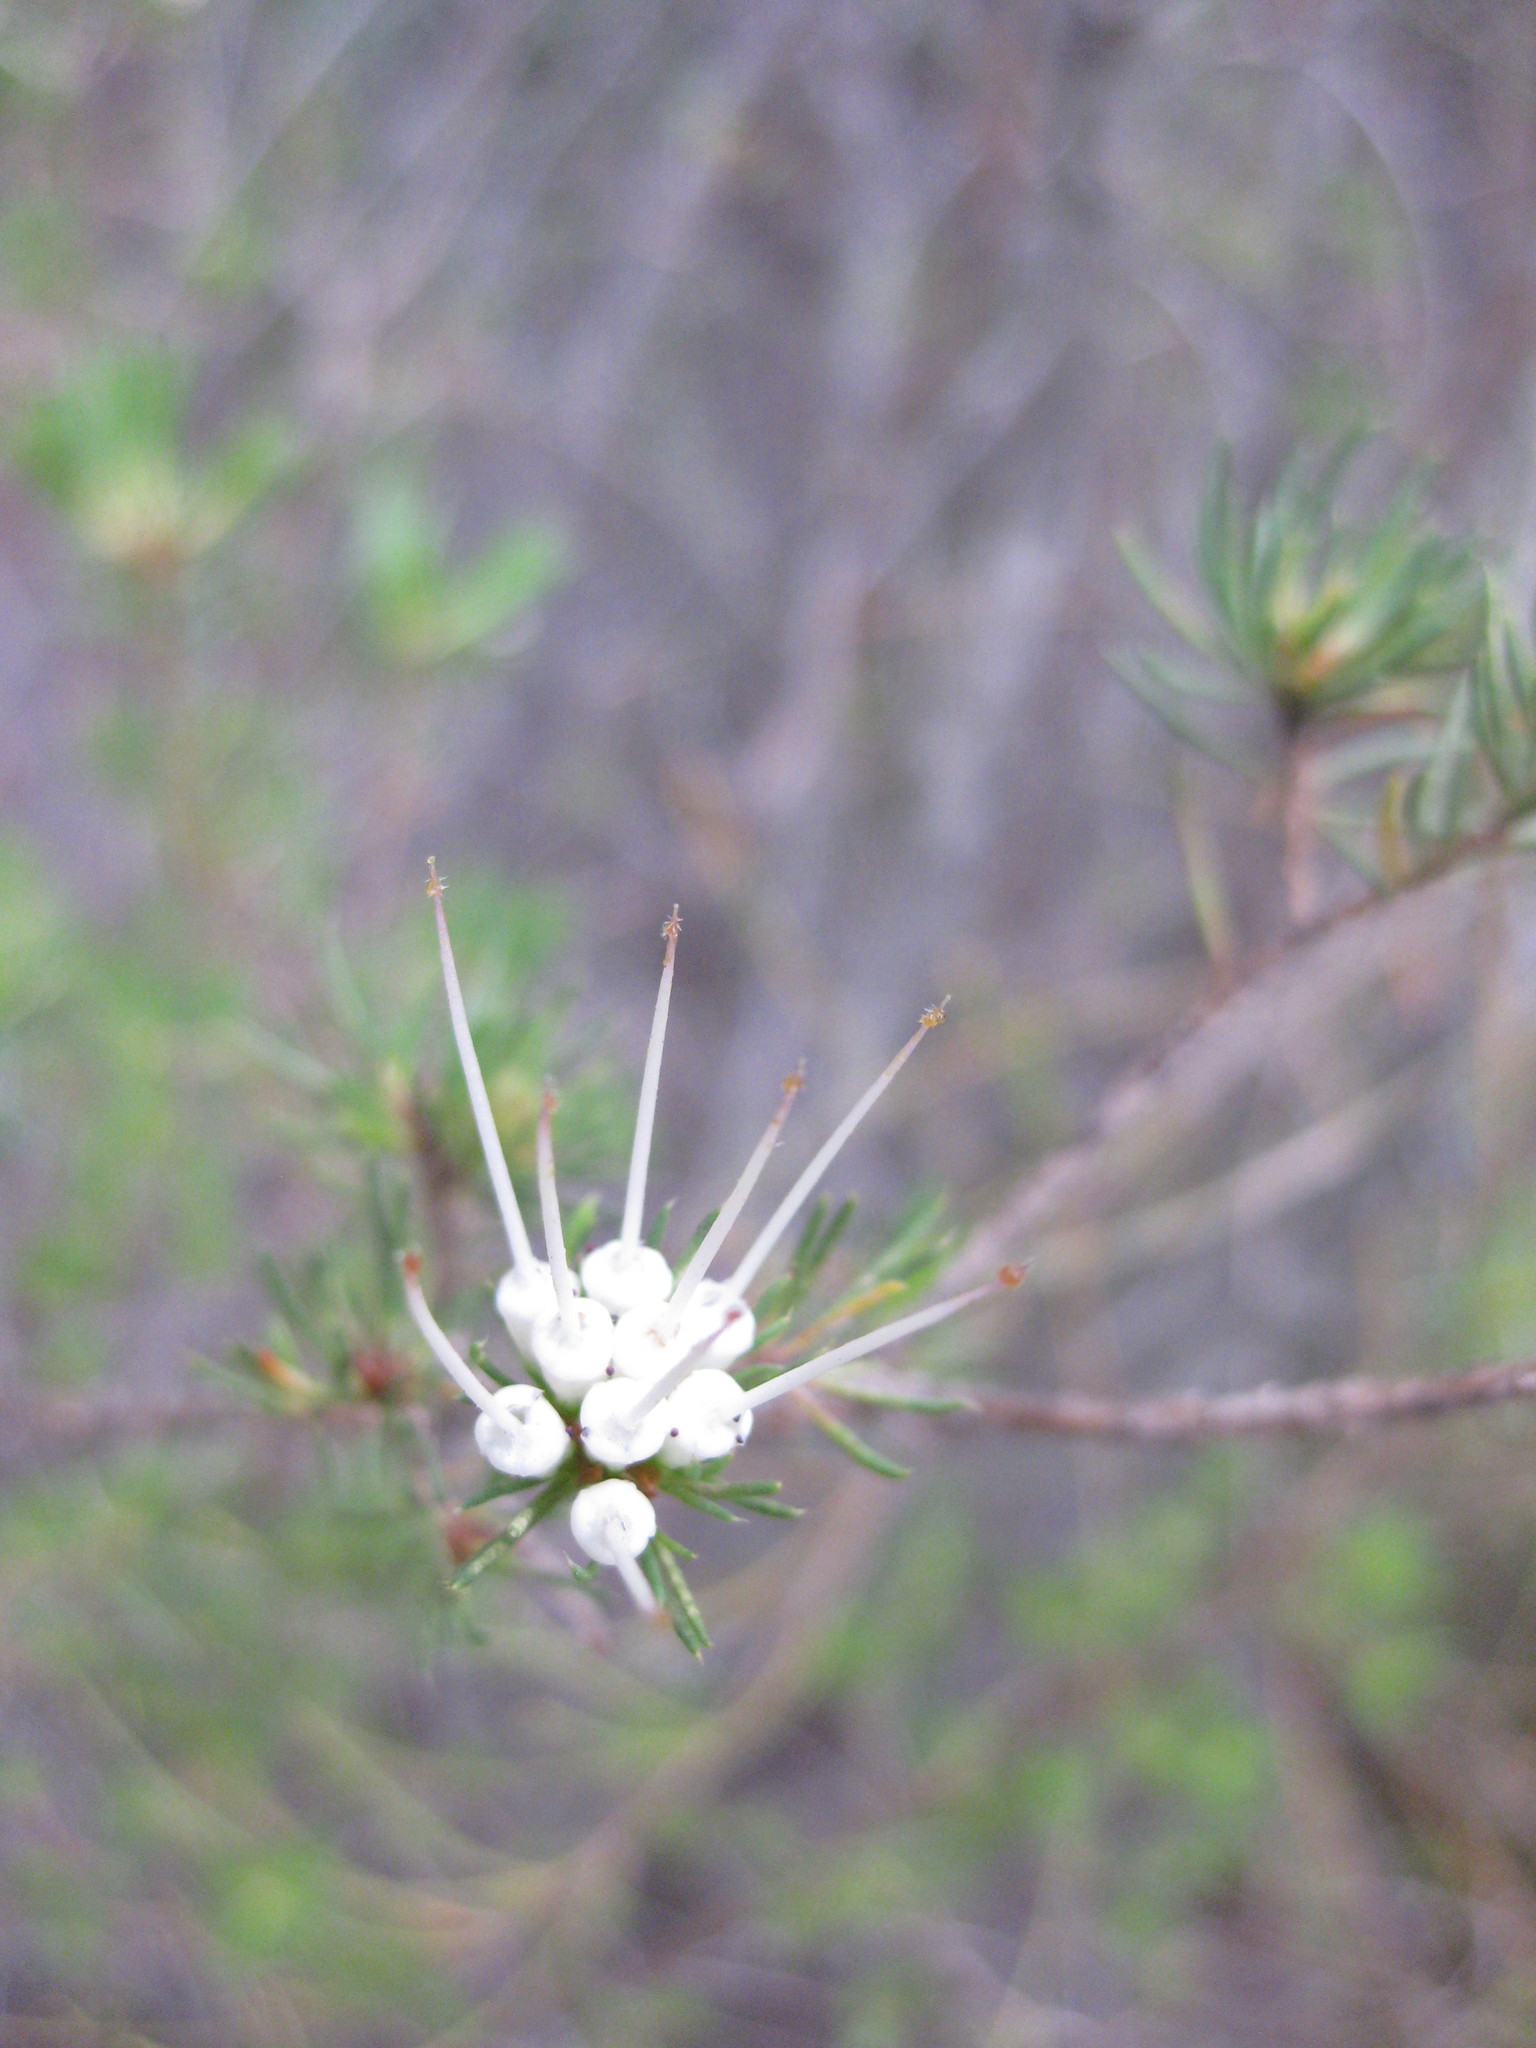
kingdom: Plantae
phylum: Tracheophyta
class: Magnoliopsida
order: Myrtales
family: Myrtaceae
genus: Darwinia
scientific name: Darwinia fascicularis
